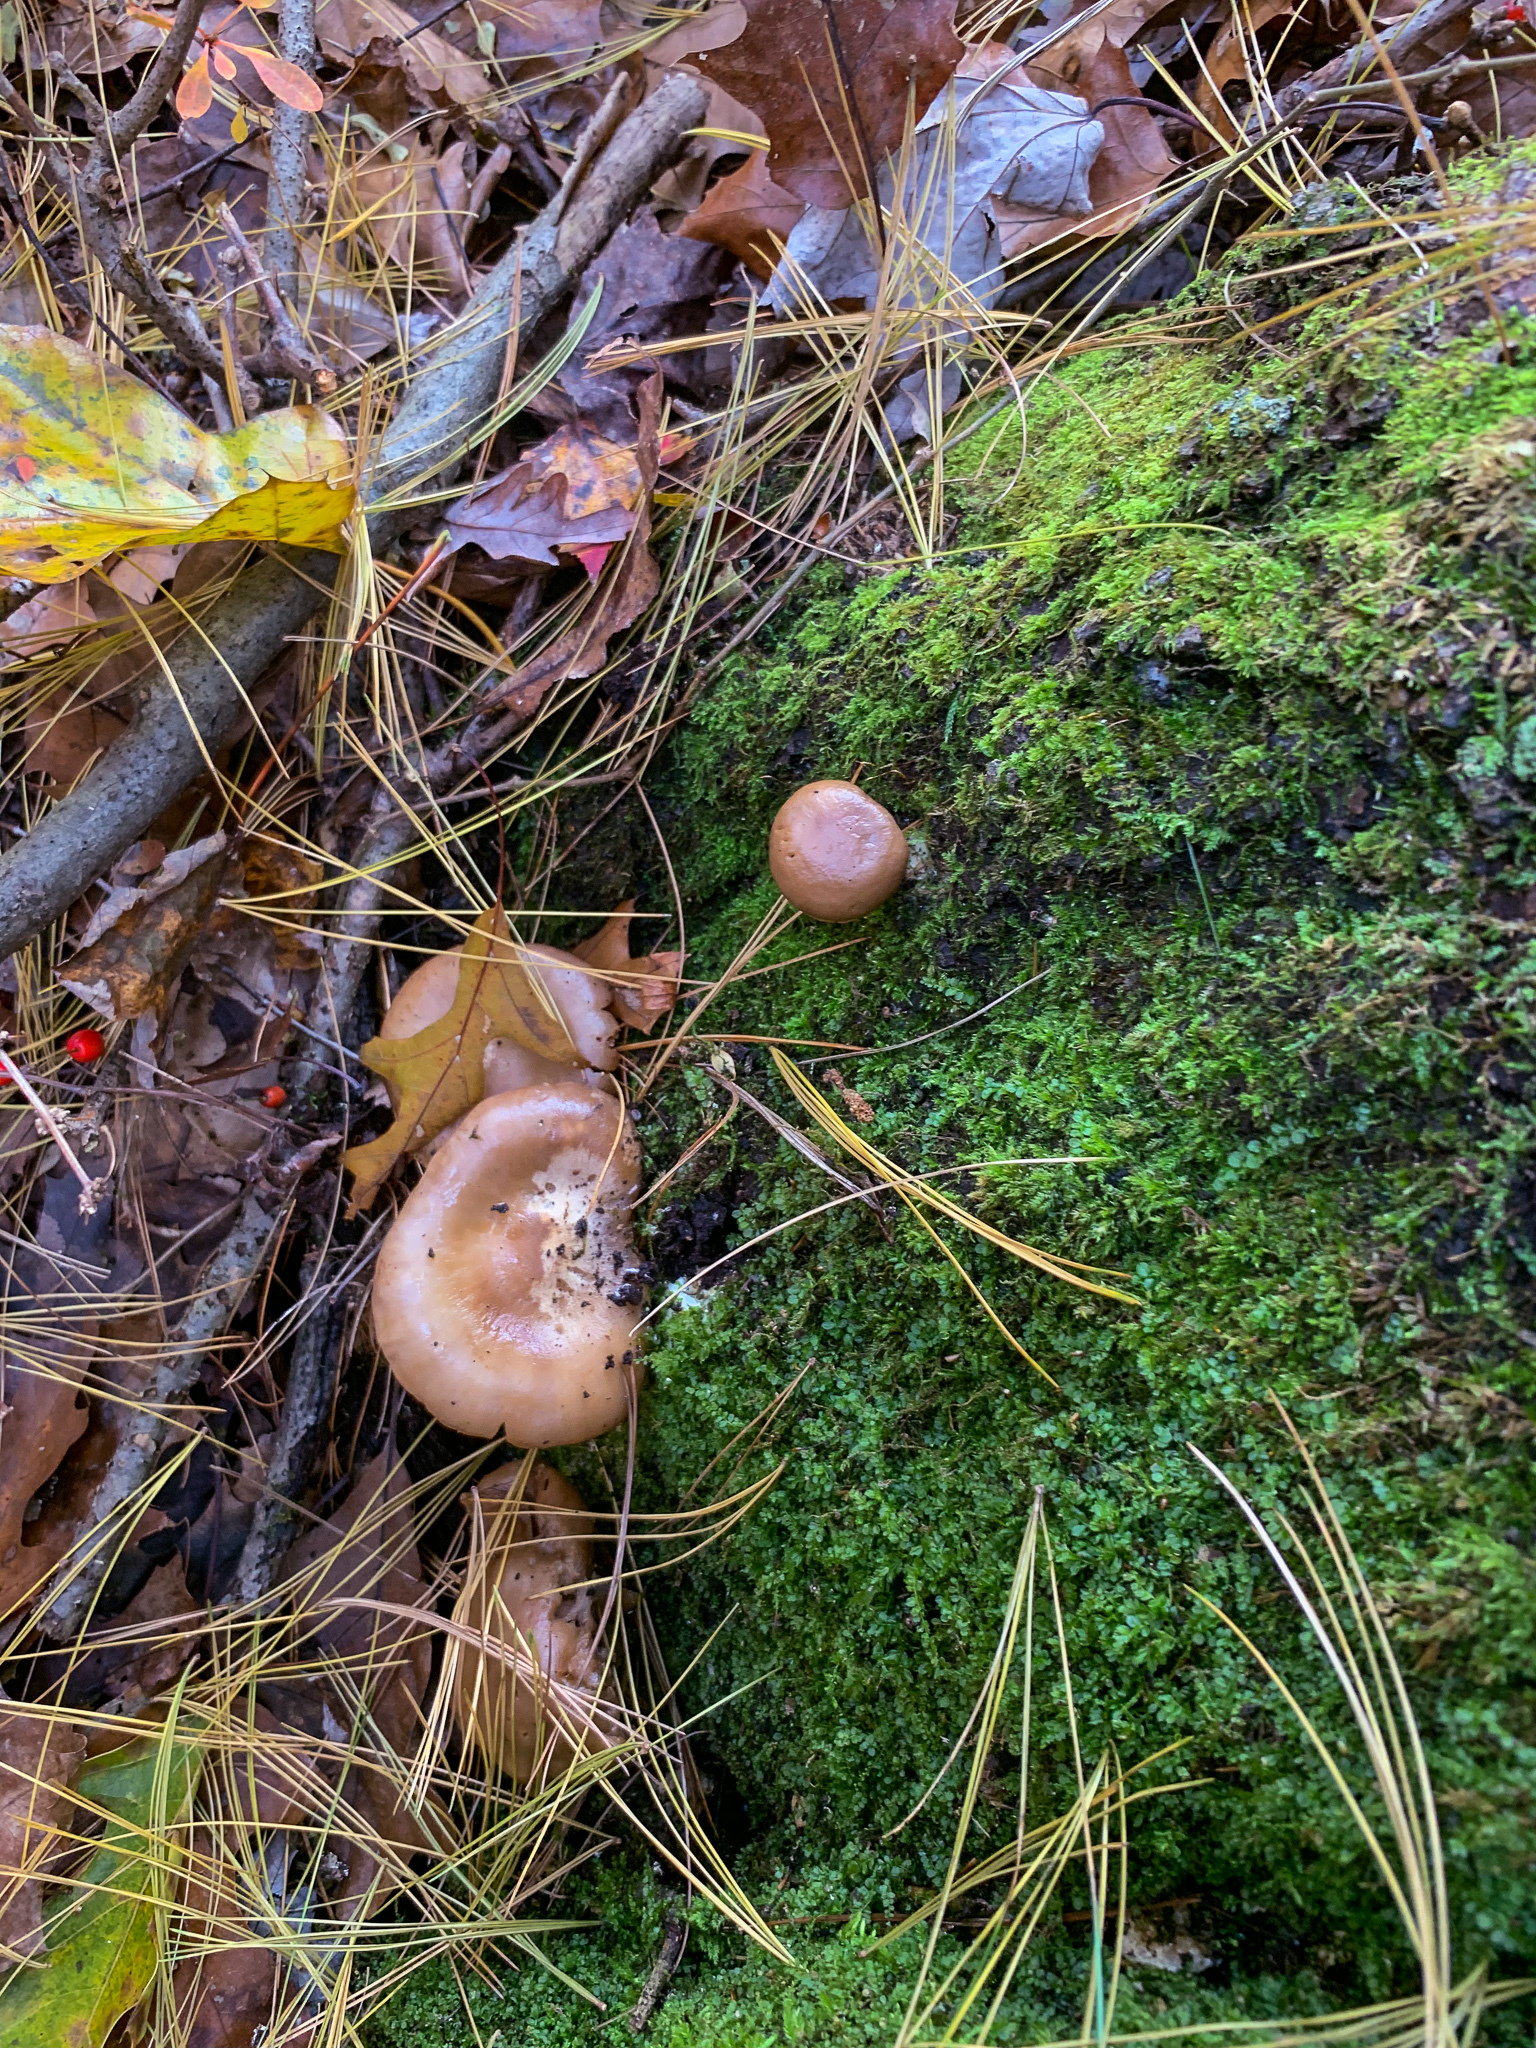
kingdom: Fungi
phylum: Basidiomycota
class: Agaricomycetes
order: Agaricales
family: Entolomataceae
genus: Entoloma
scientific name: Entoloma abortivum
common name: Aborted entoloma
